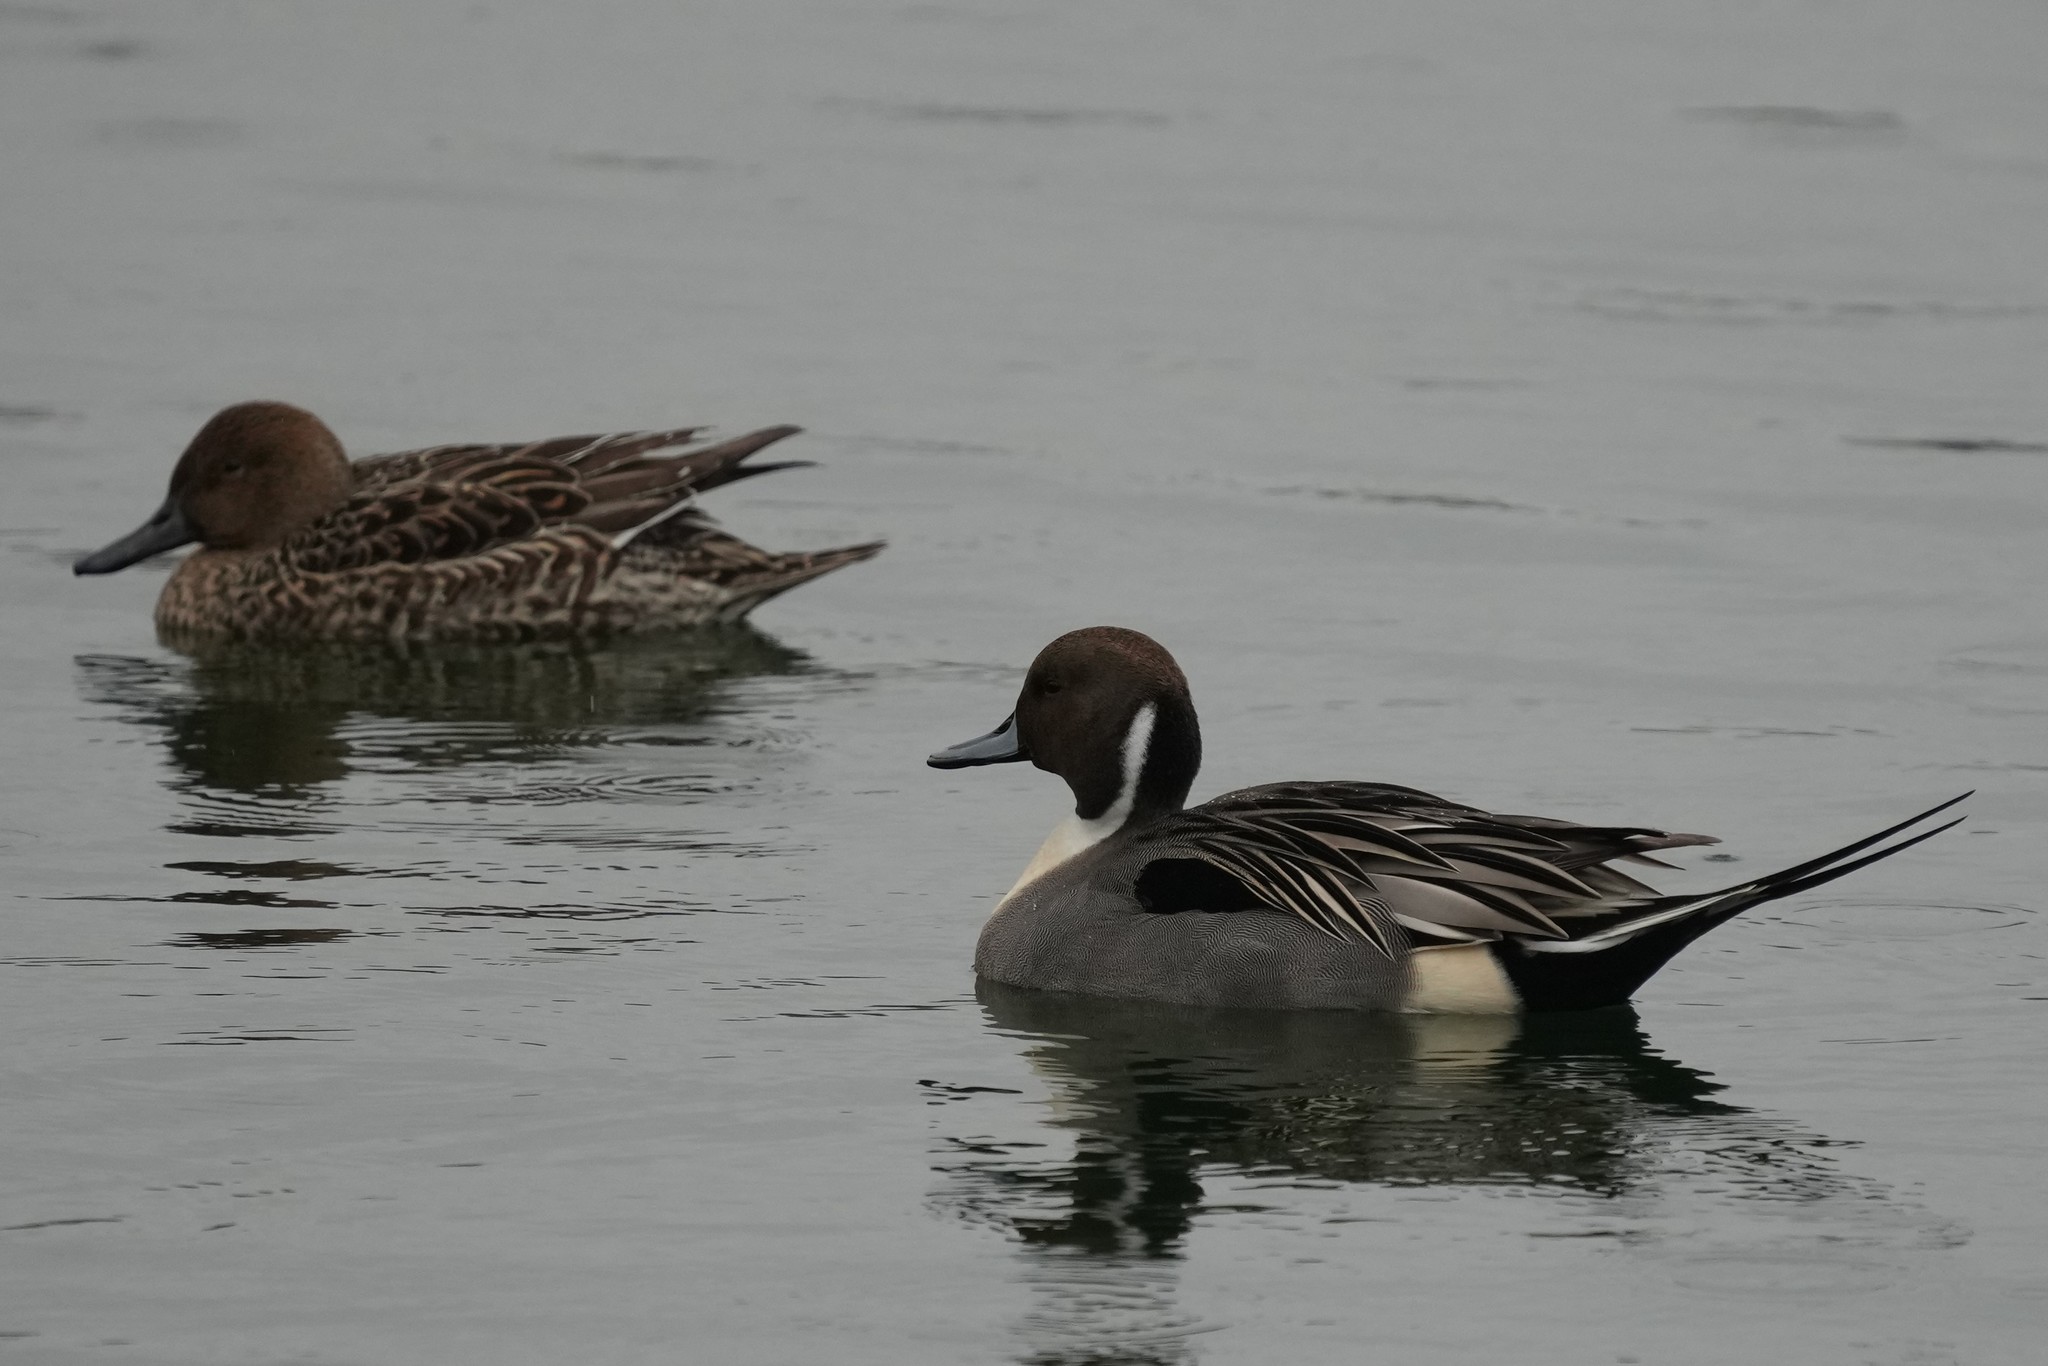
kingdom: Animalia
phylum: Chordata
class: Aves
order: Anseriformes
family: Anatidae
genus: Anas
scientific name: Anas acuta
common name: Northern pintail
